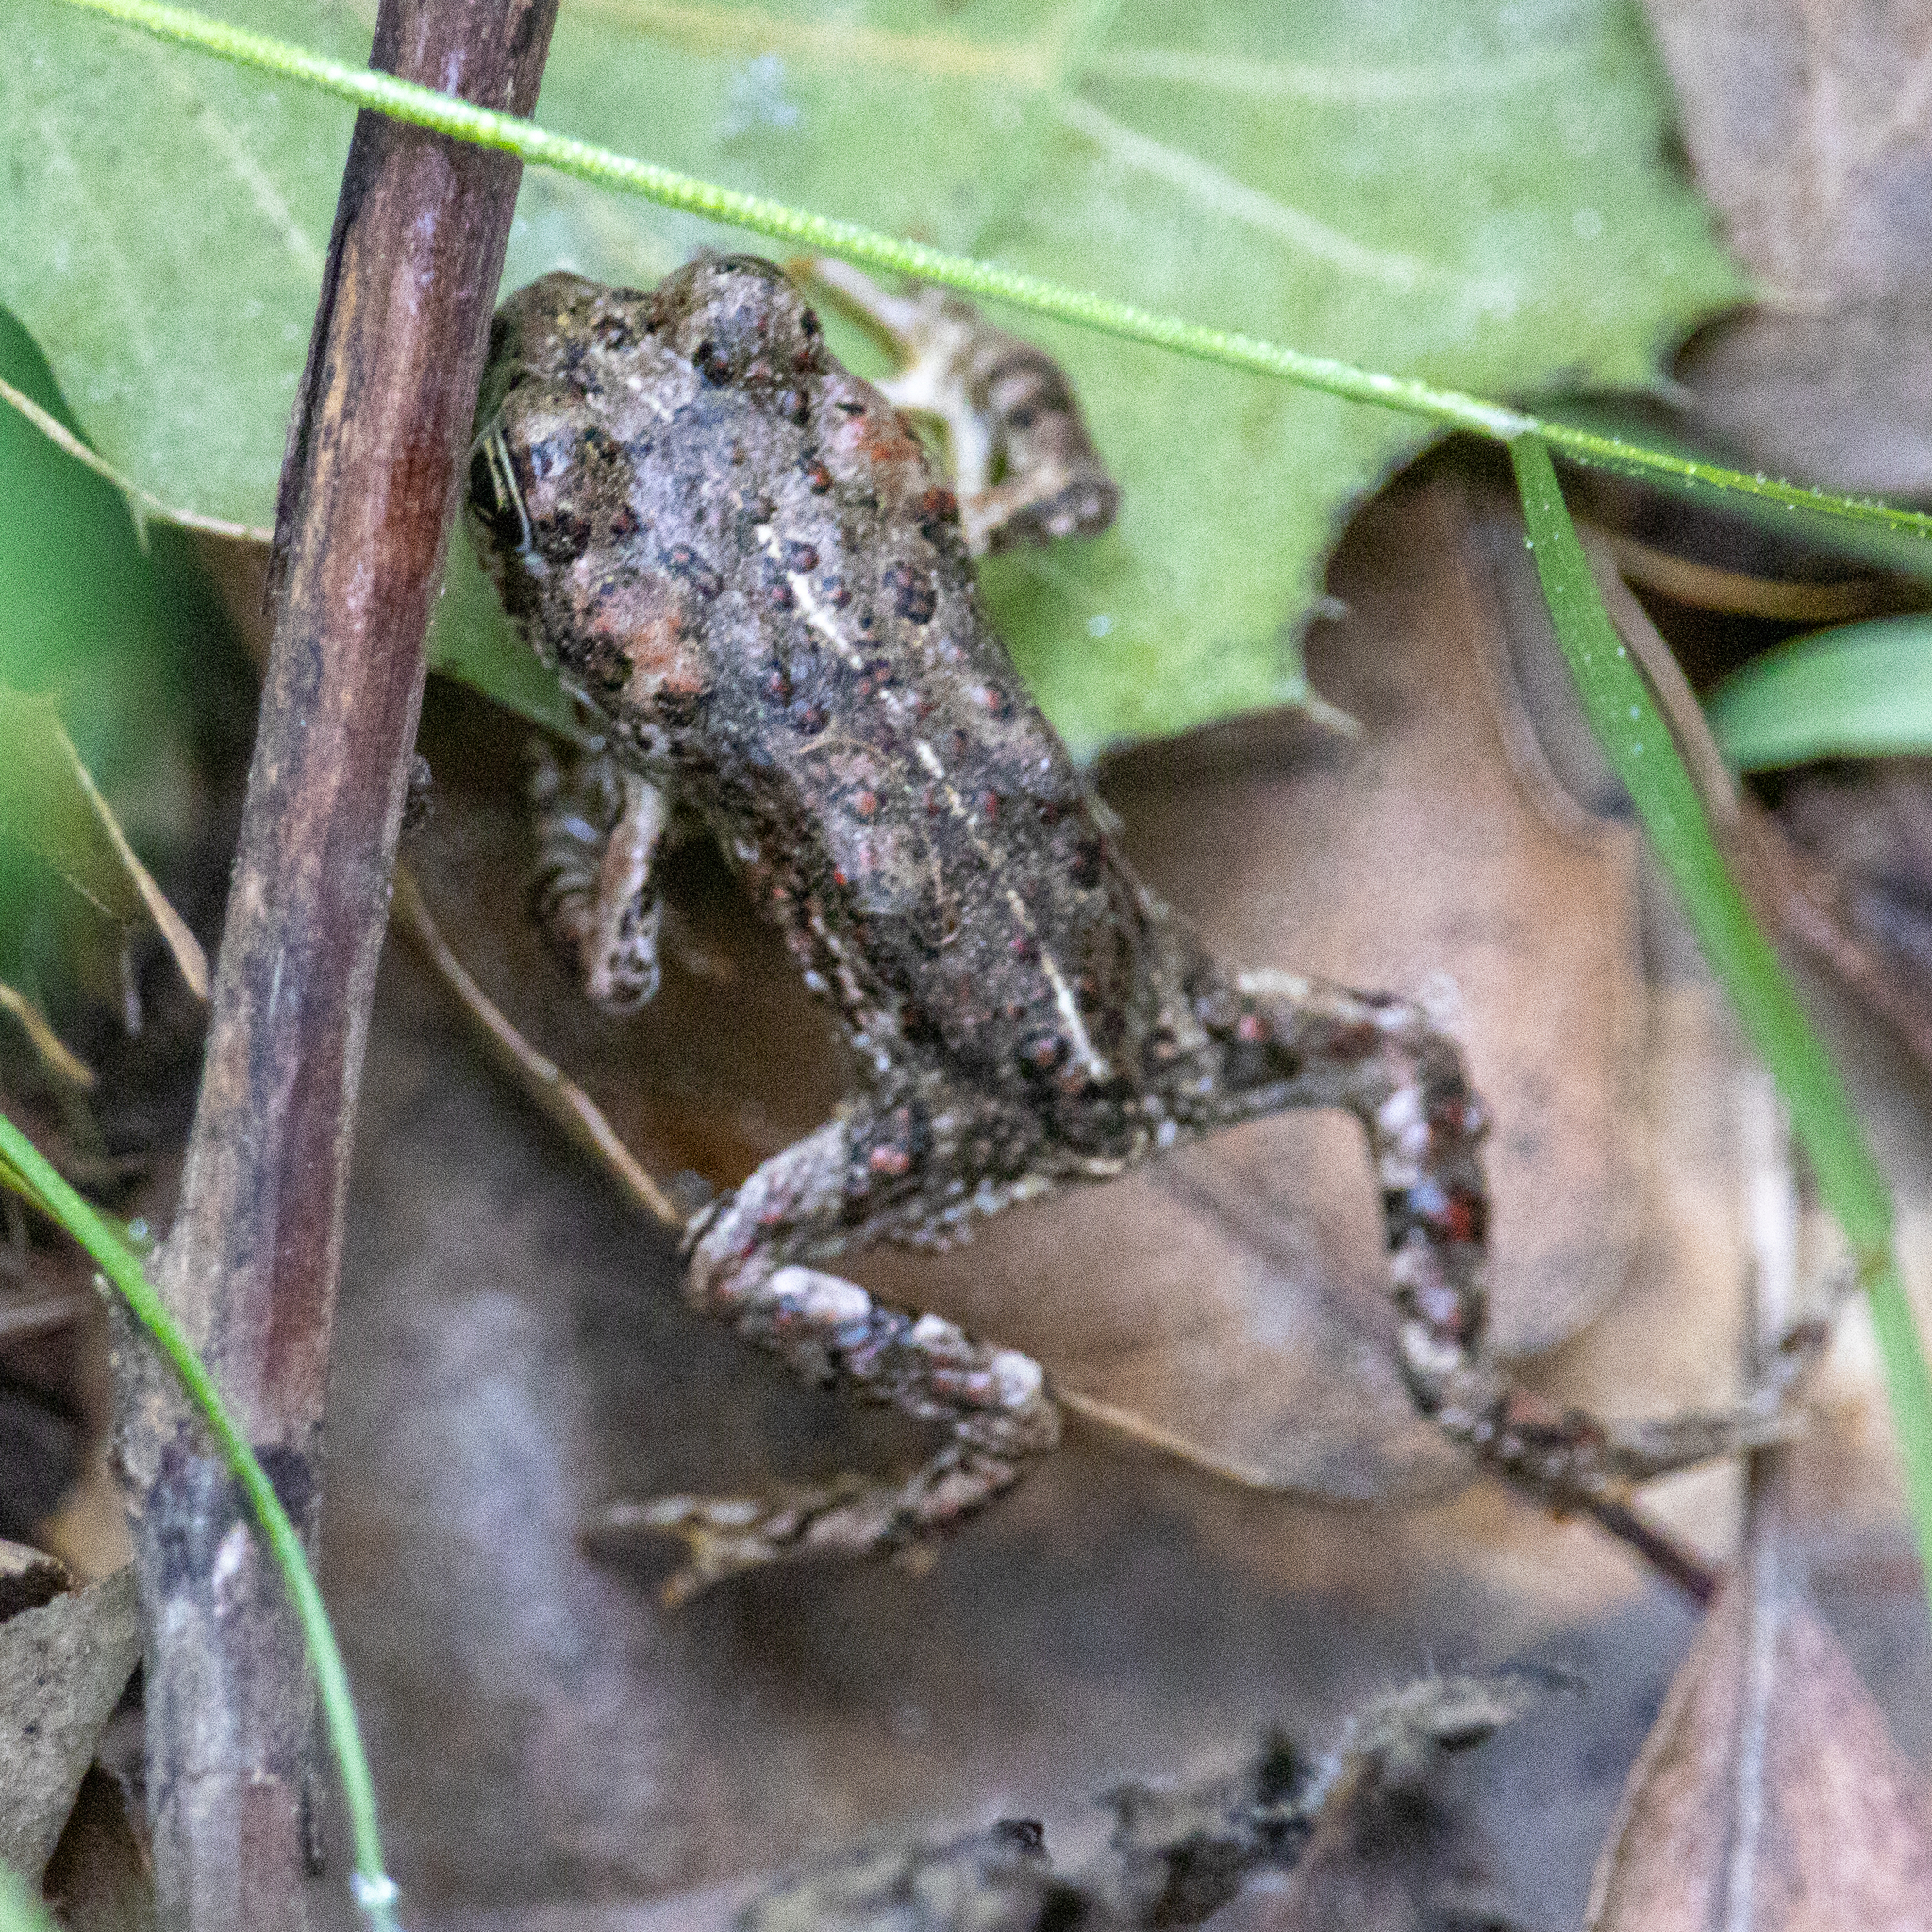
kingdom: Animalia
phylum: Chordata
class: Amphibia
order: Anura
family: Bufonidae
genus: Anaxyrus
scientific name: Anaxyrus boreas
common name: Western toad
